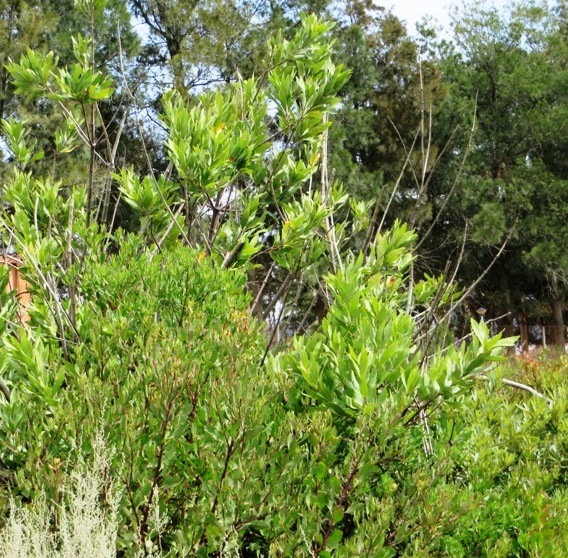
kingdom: Plantae
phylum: Tracheophyta
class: Magnoliopsida
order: Proteales
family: Proteaceae
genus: Brabejum
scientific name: Brabejum stellatifolium
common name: Wild almond
